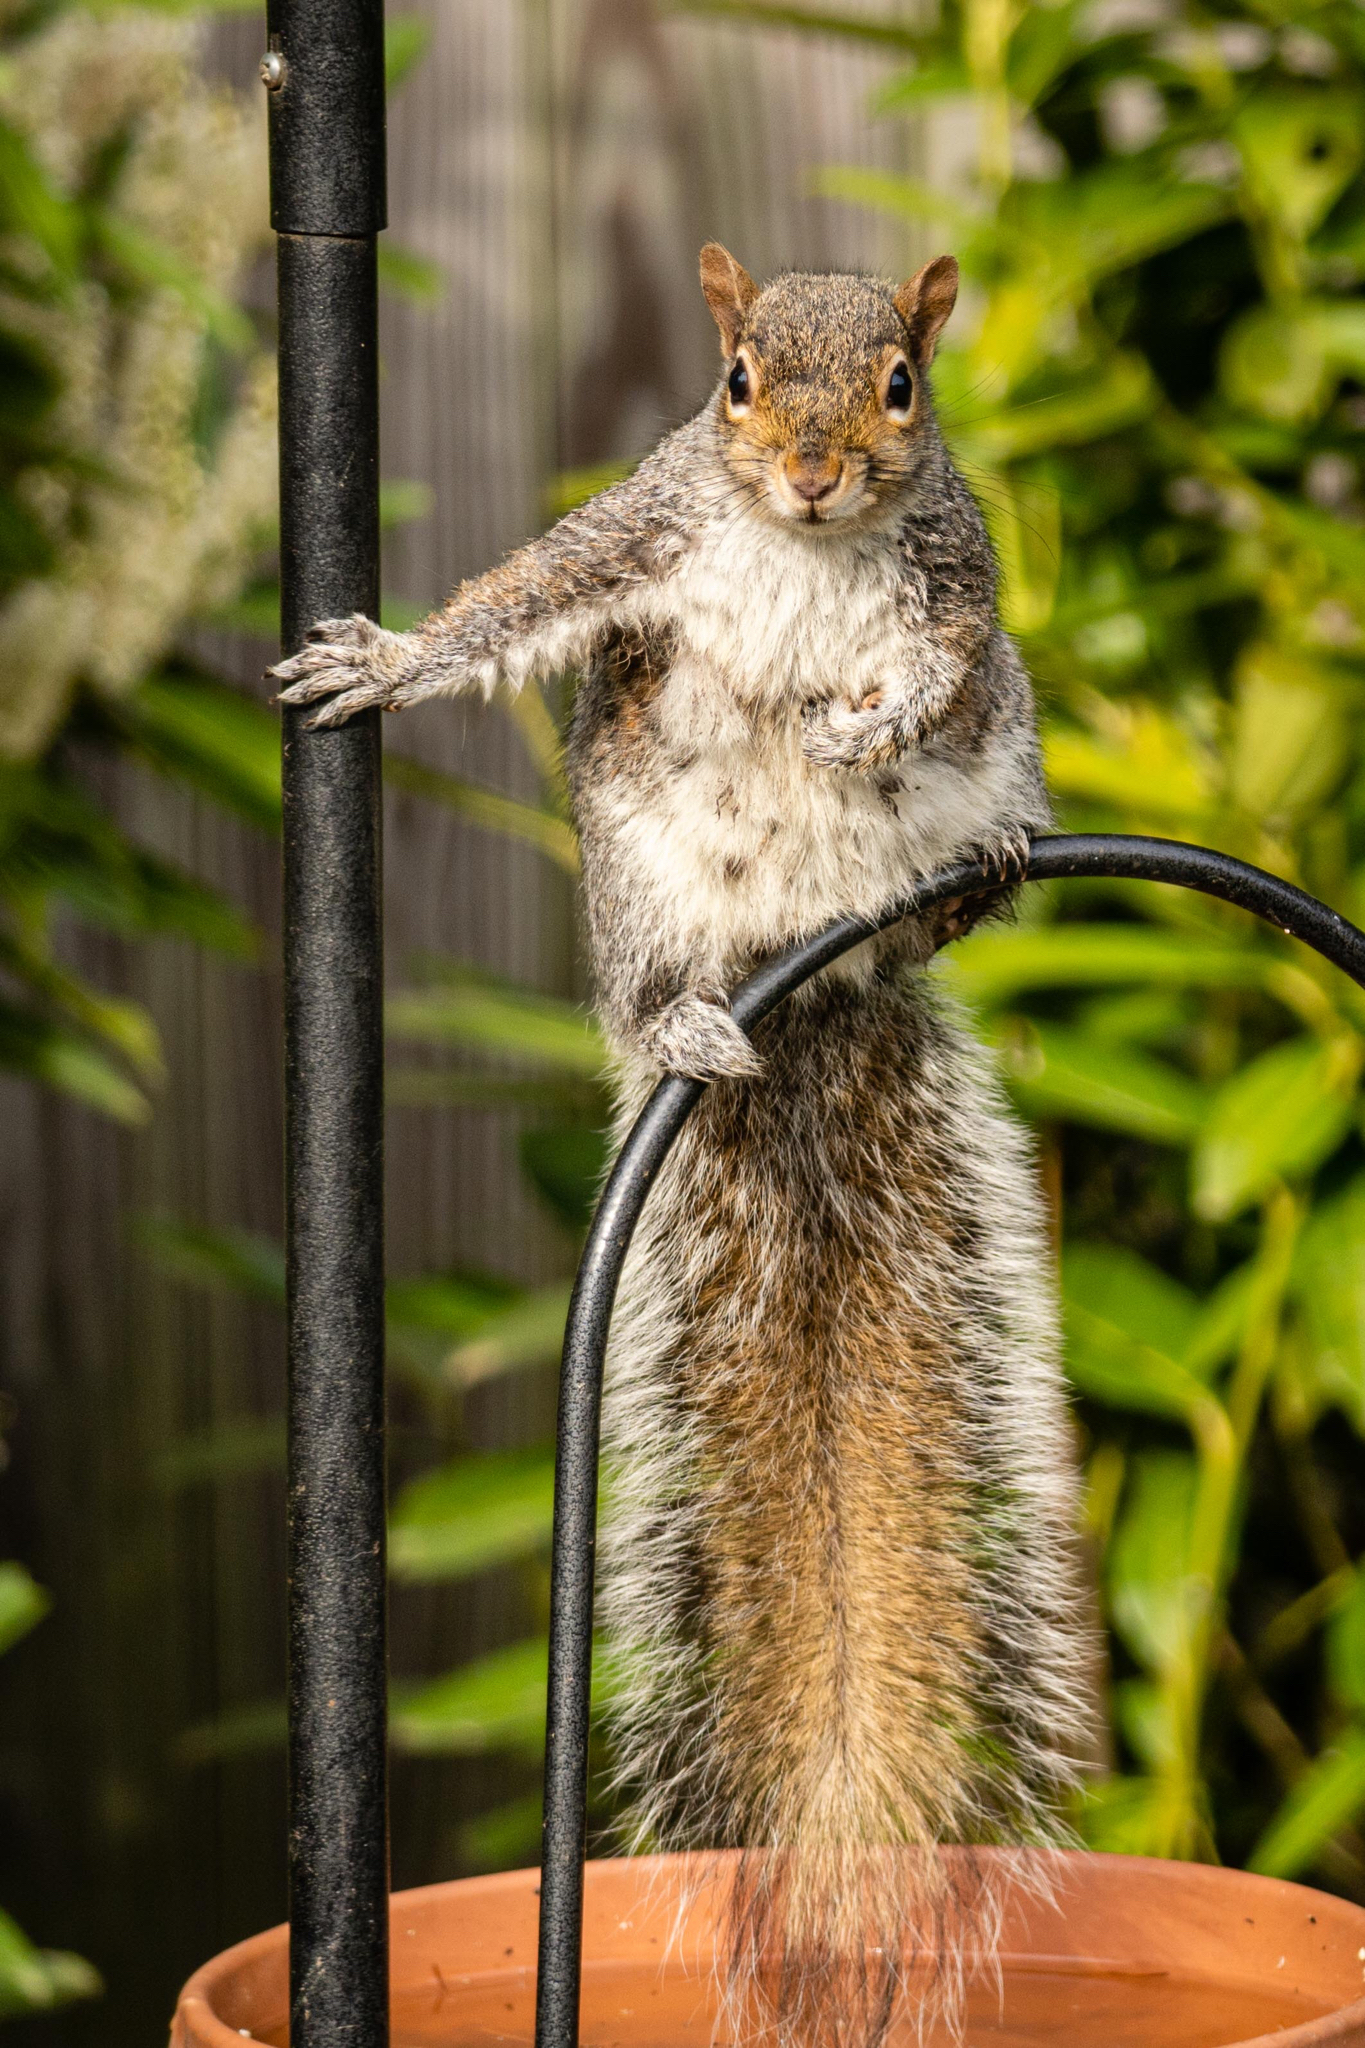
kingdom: Animalia
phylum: Chordata
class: Mammalia
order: Rodentia
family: Sciuridae
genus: Sciurus
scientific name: Sciurus carolinensis
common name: Eastern gray squirrel
